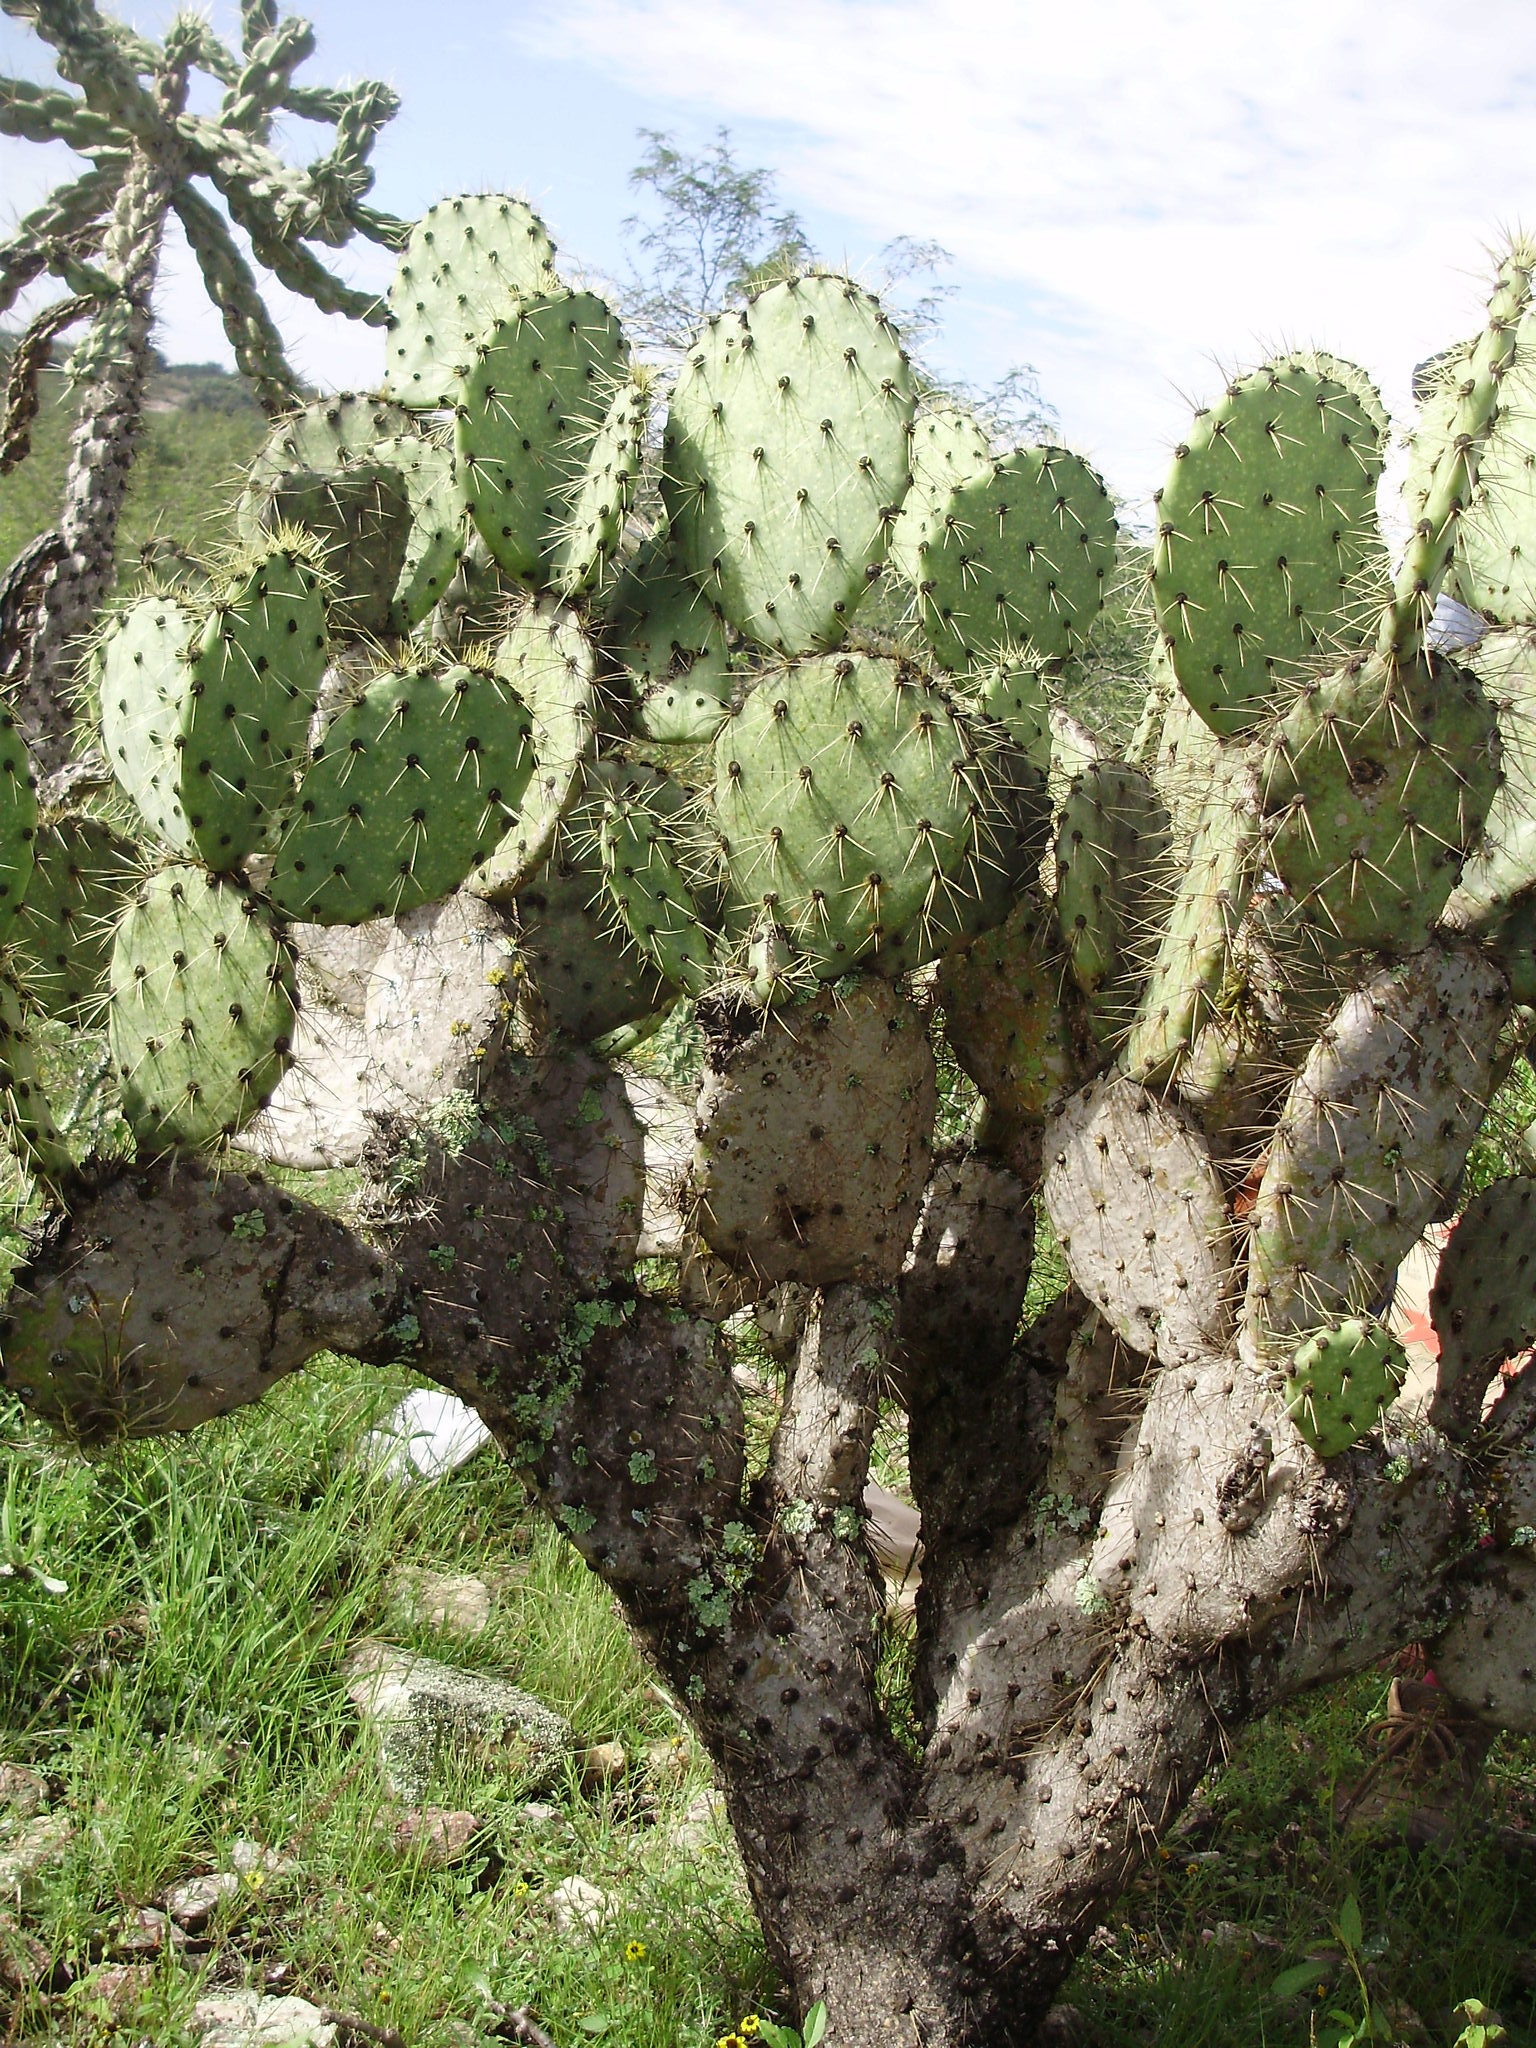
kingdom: Plantae
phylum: Tracheophyta
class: Magnoliopsida
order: Caryophyllales
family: Cactaceae
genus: Opuntia
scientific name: Opuntia engelmannii
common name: Cactus-apple
